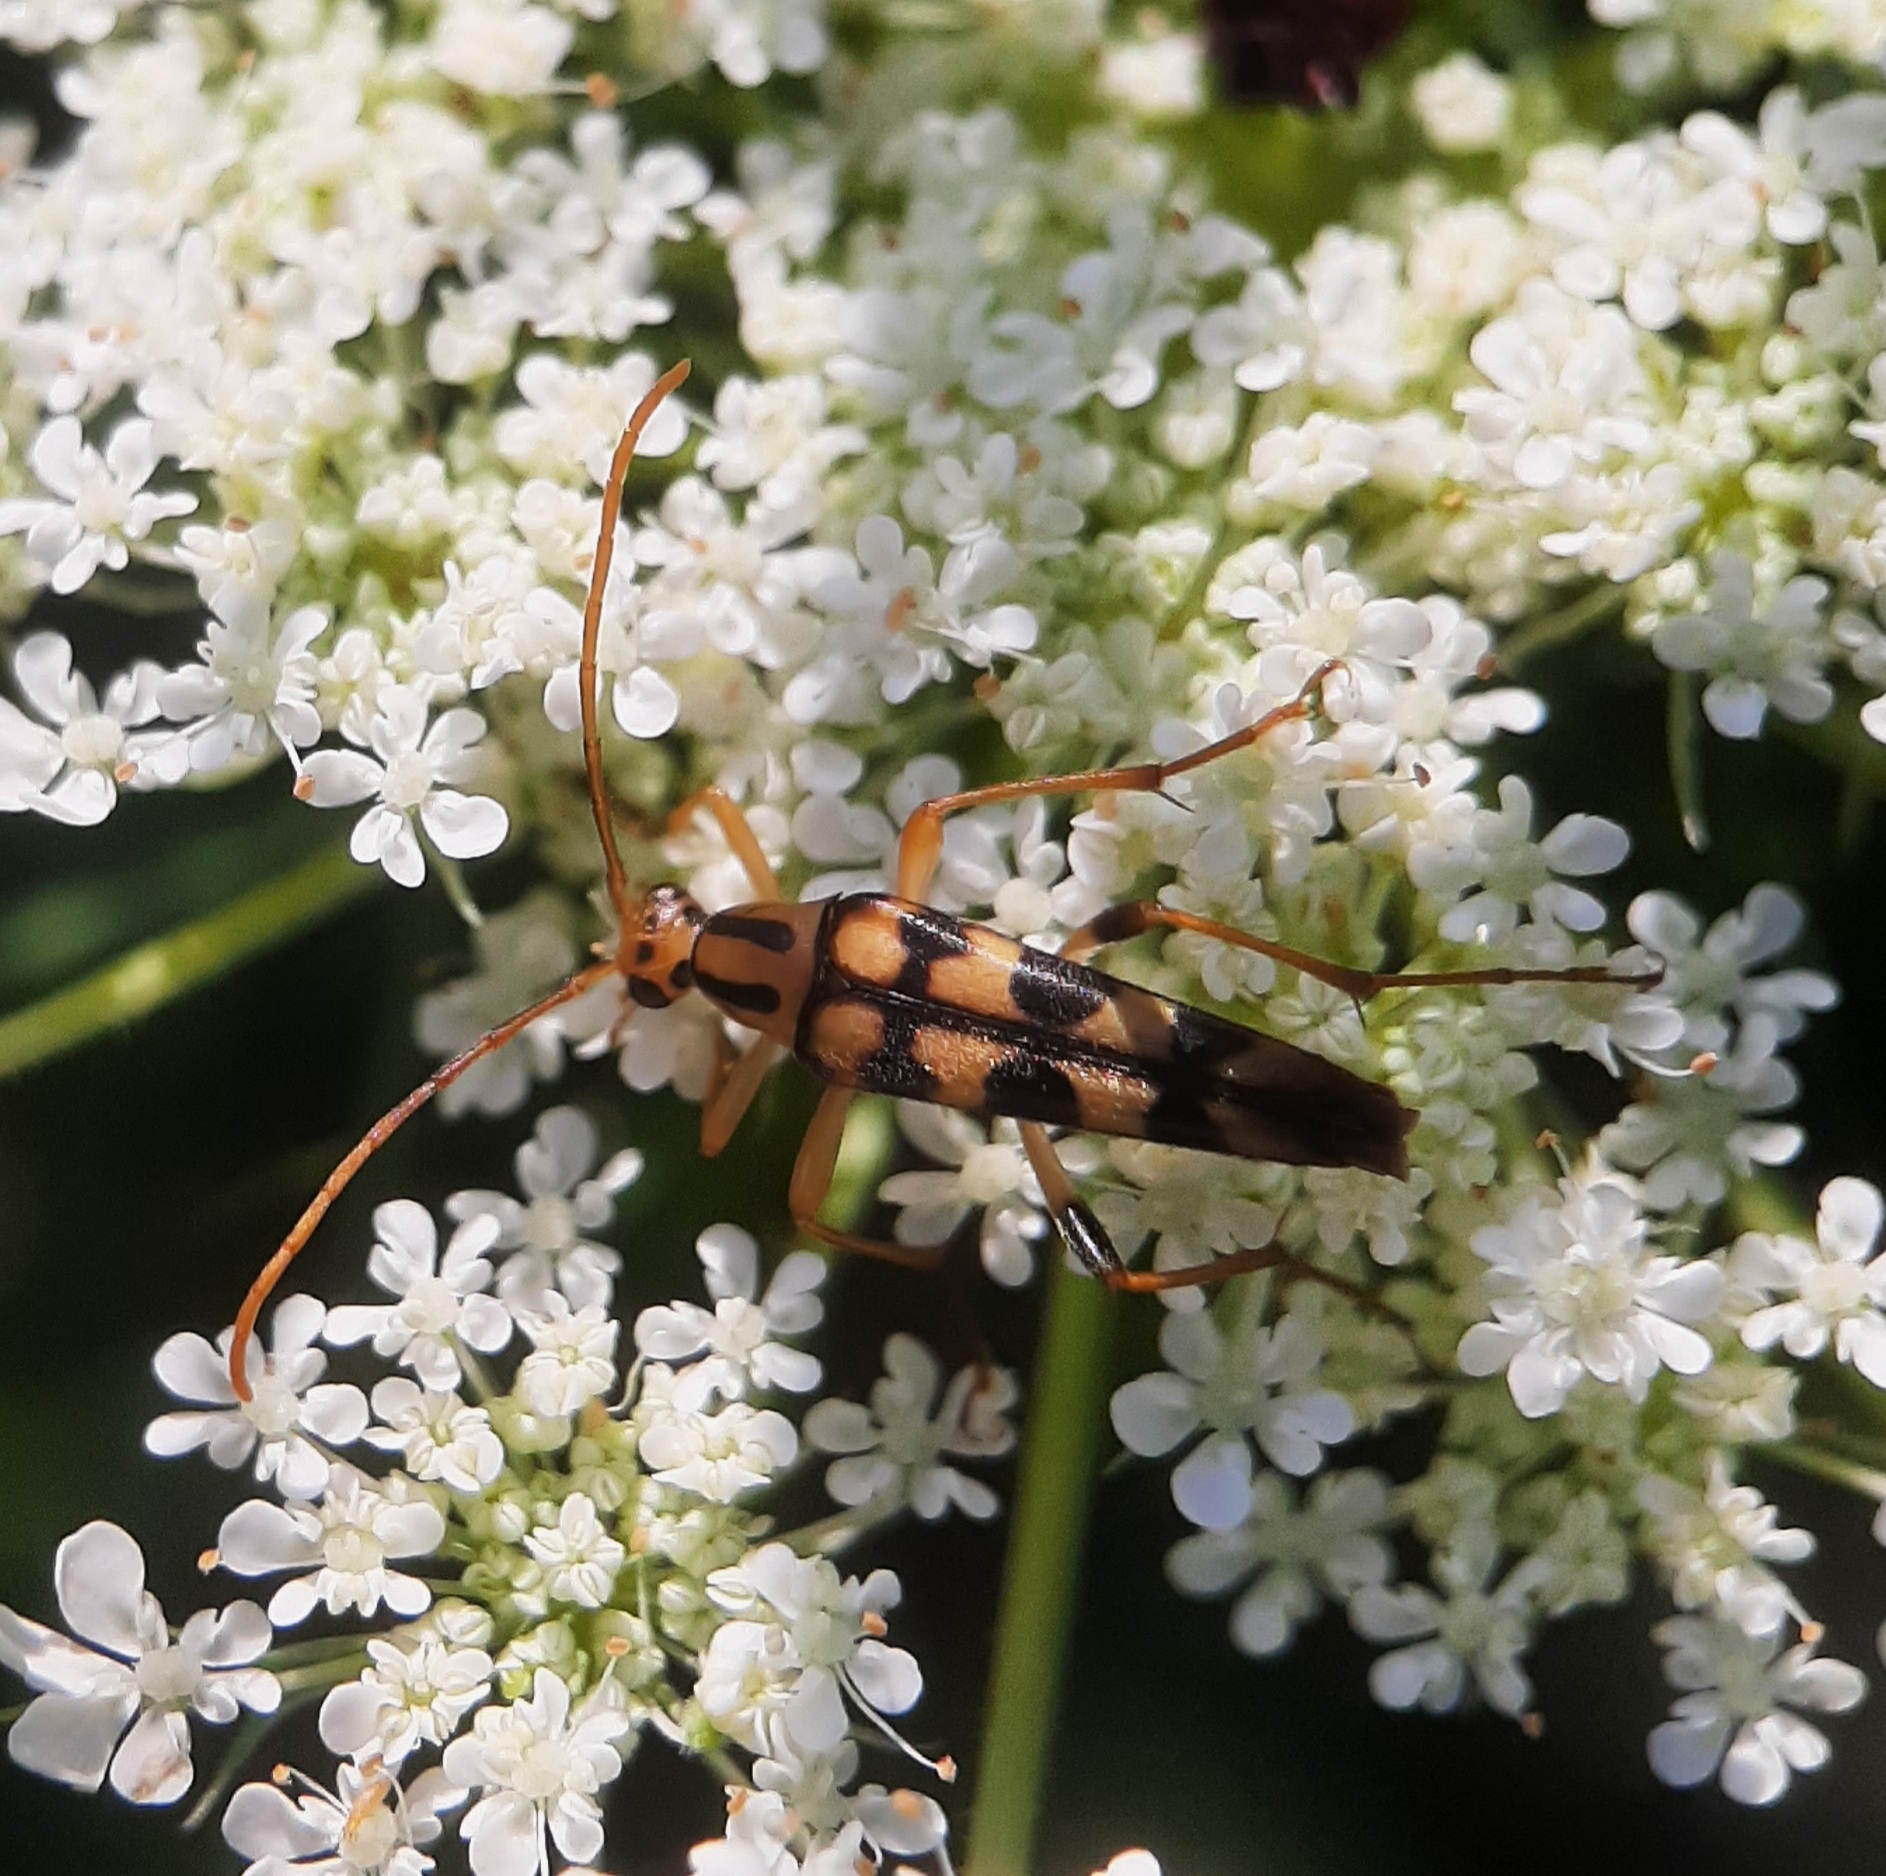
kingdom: Animalia
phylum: Arthropoda
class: Insecta
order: Coleoptera
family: Cerambycidae
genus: Strangalia
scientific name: Strangalia luteicornis
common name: Yellow-horned flower longhorn beetle
